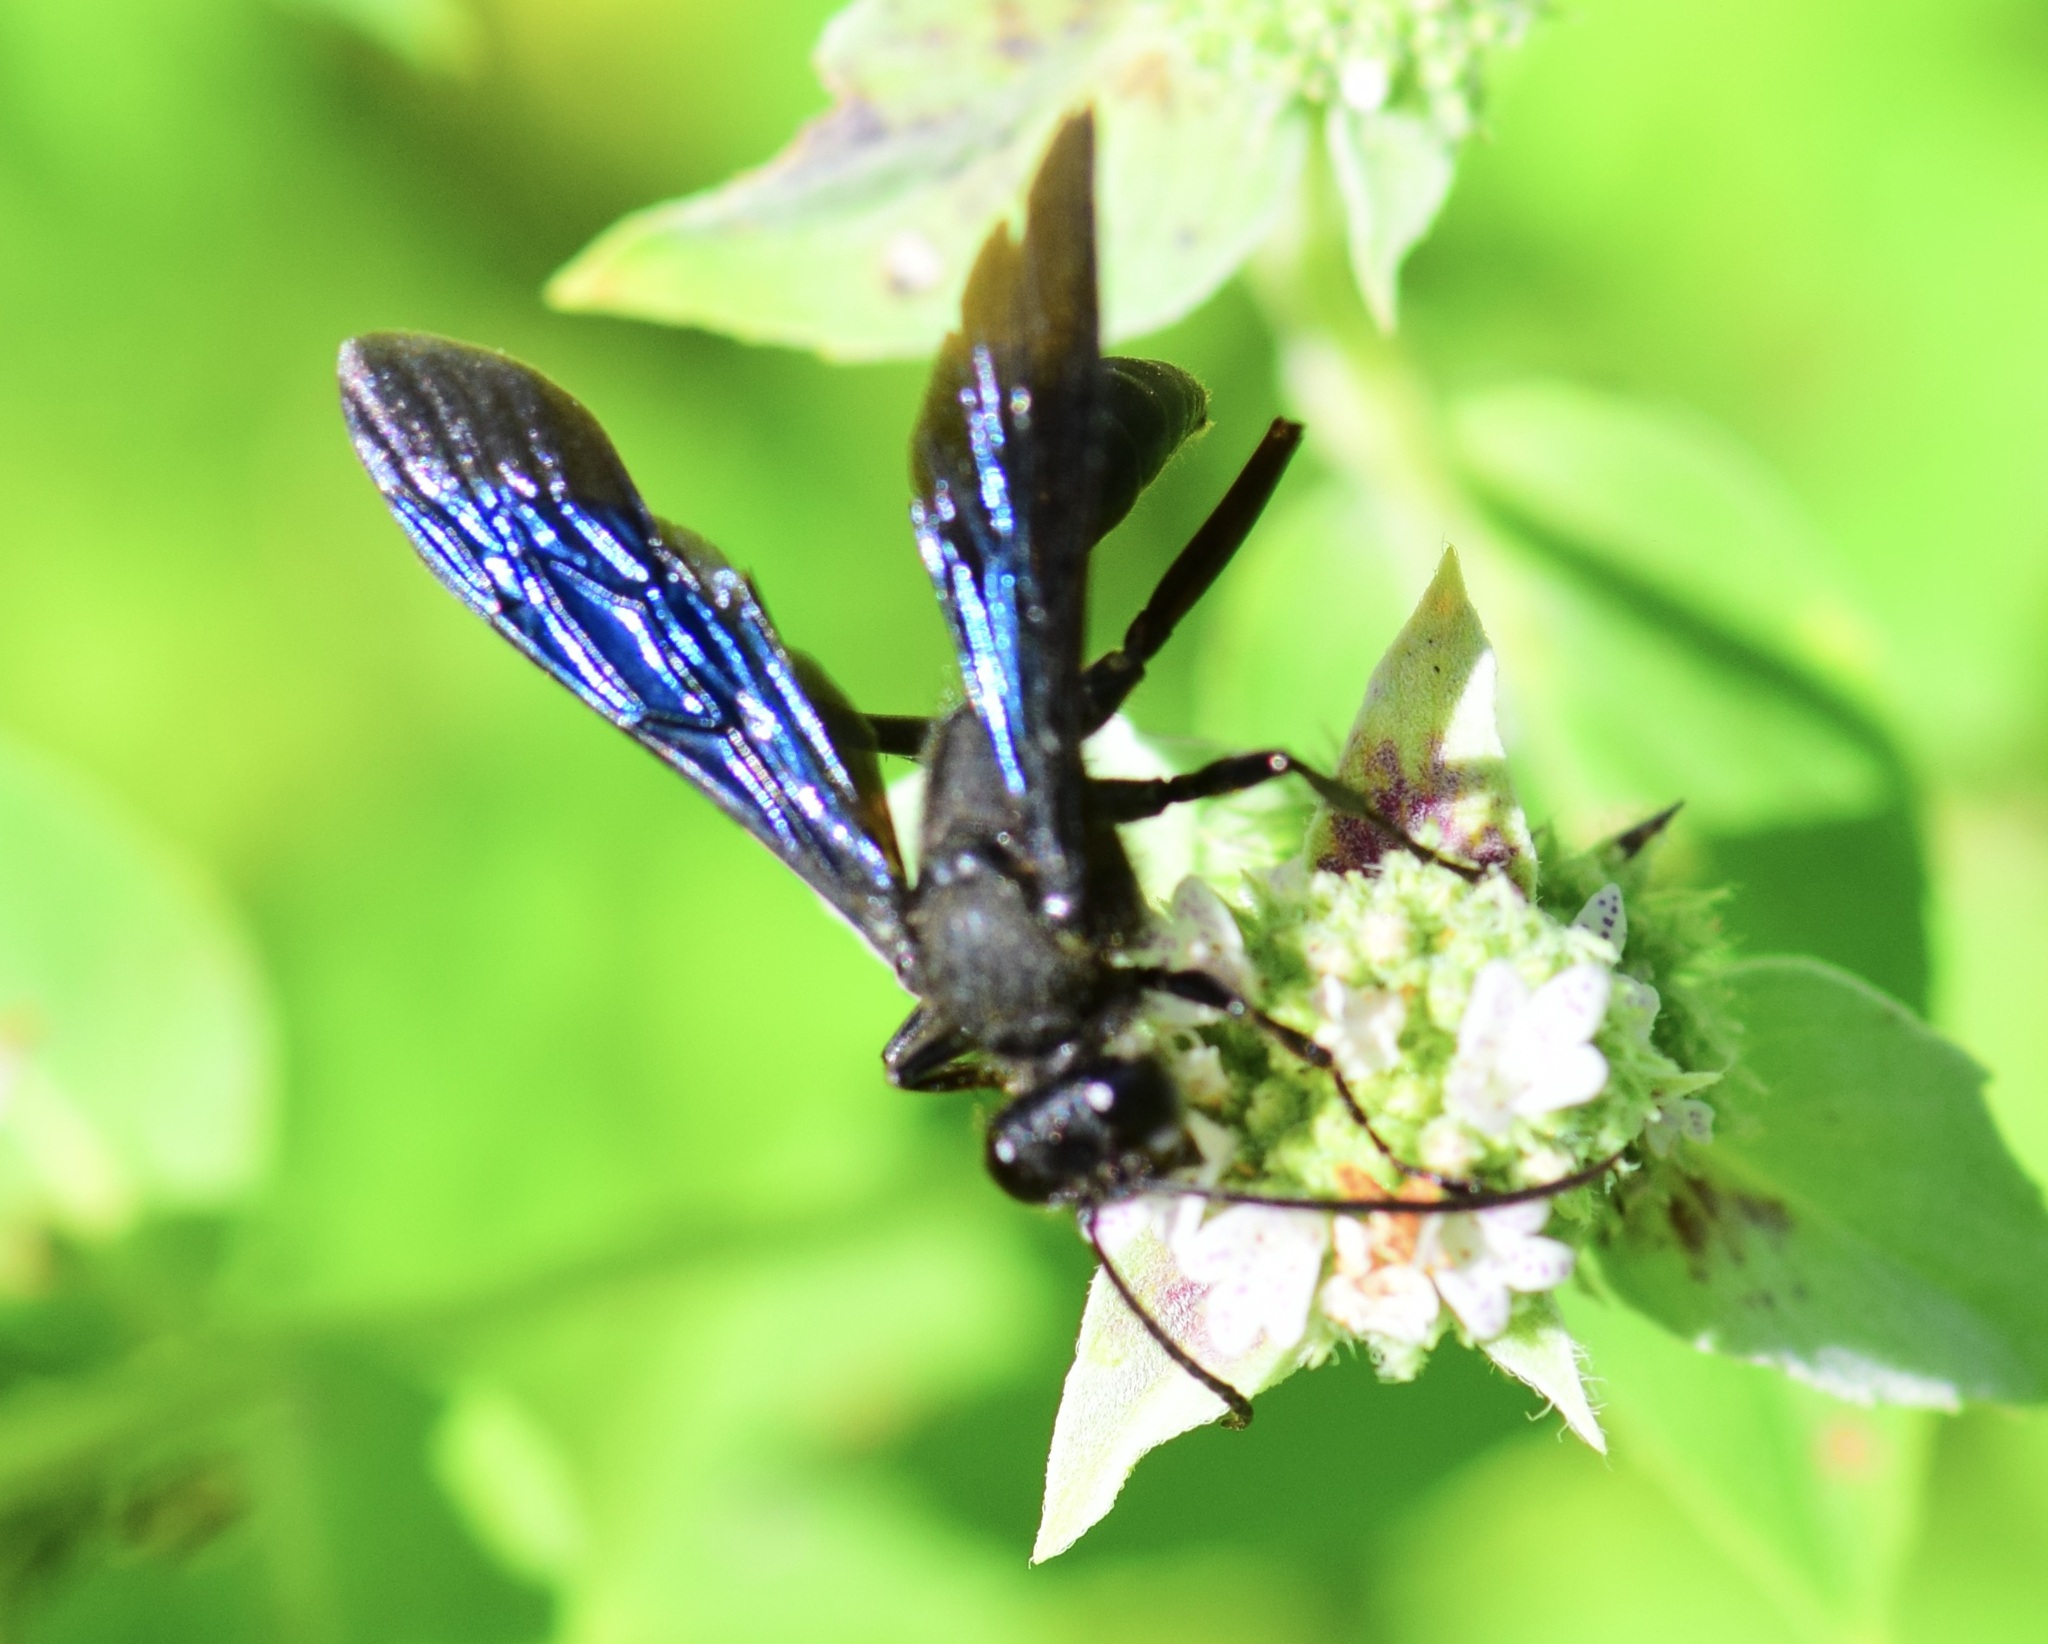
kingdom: Animalia
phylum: Arthropoda
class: Insecta
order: Hymenoptera
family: Sphecidae
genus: Sphex
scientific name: Sphex pensylvanicus
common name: Great black digger wasp
